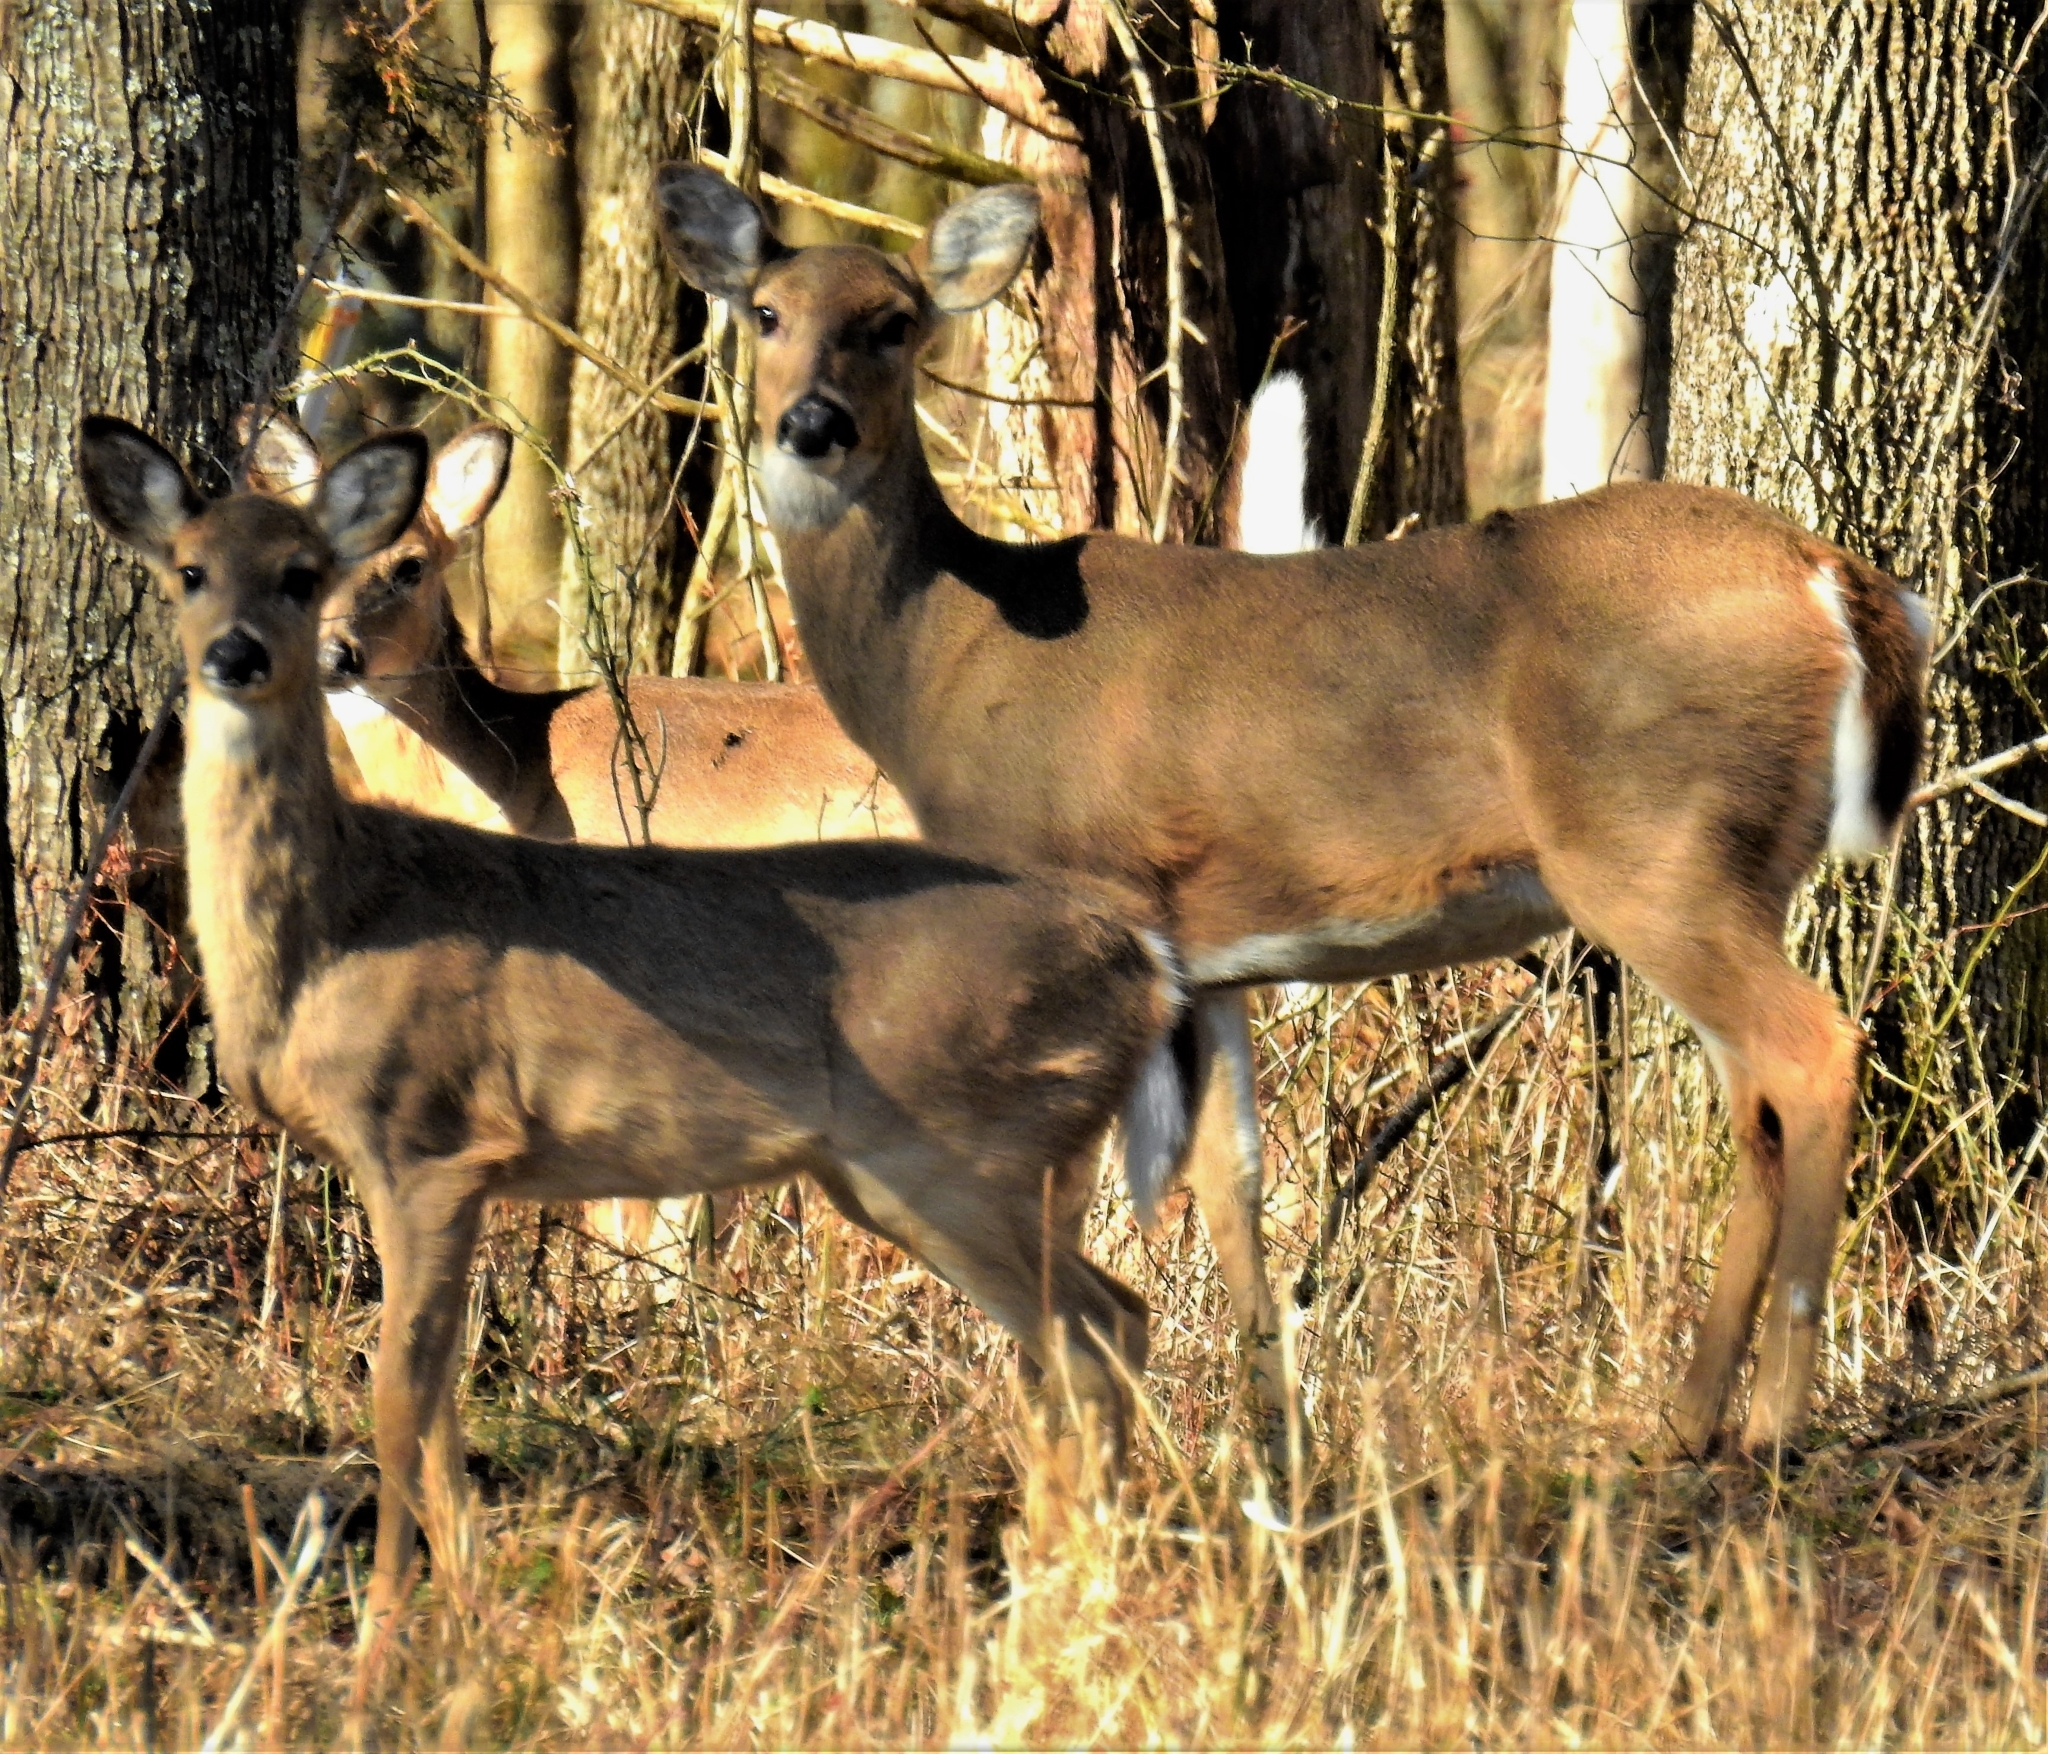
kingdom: Animalia
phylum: Chordata
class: Mammalia
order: Artiodactyla
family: Cervidae
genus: Odocoileus
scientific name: Odocoileus virginianus
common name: White-tailed deer
